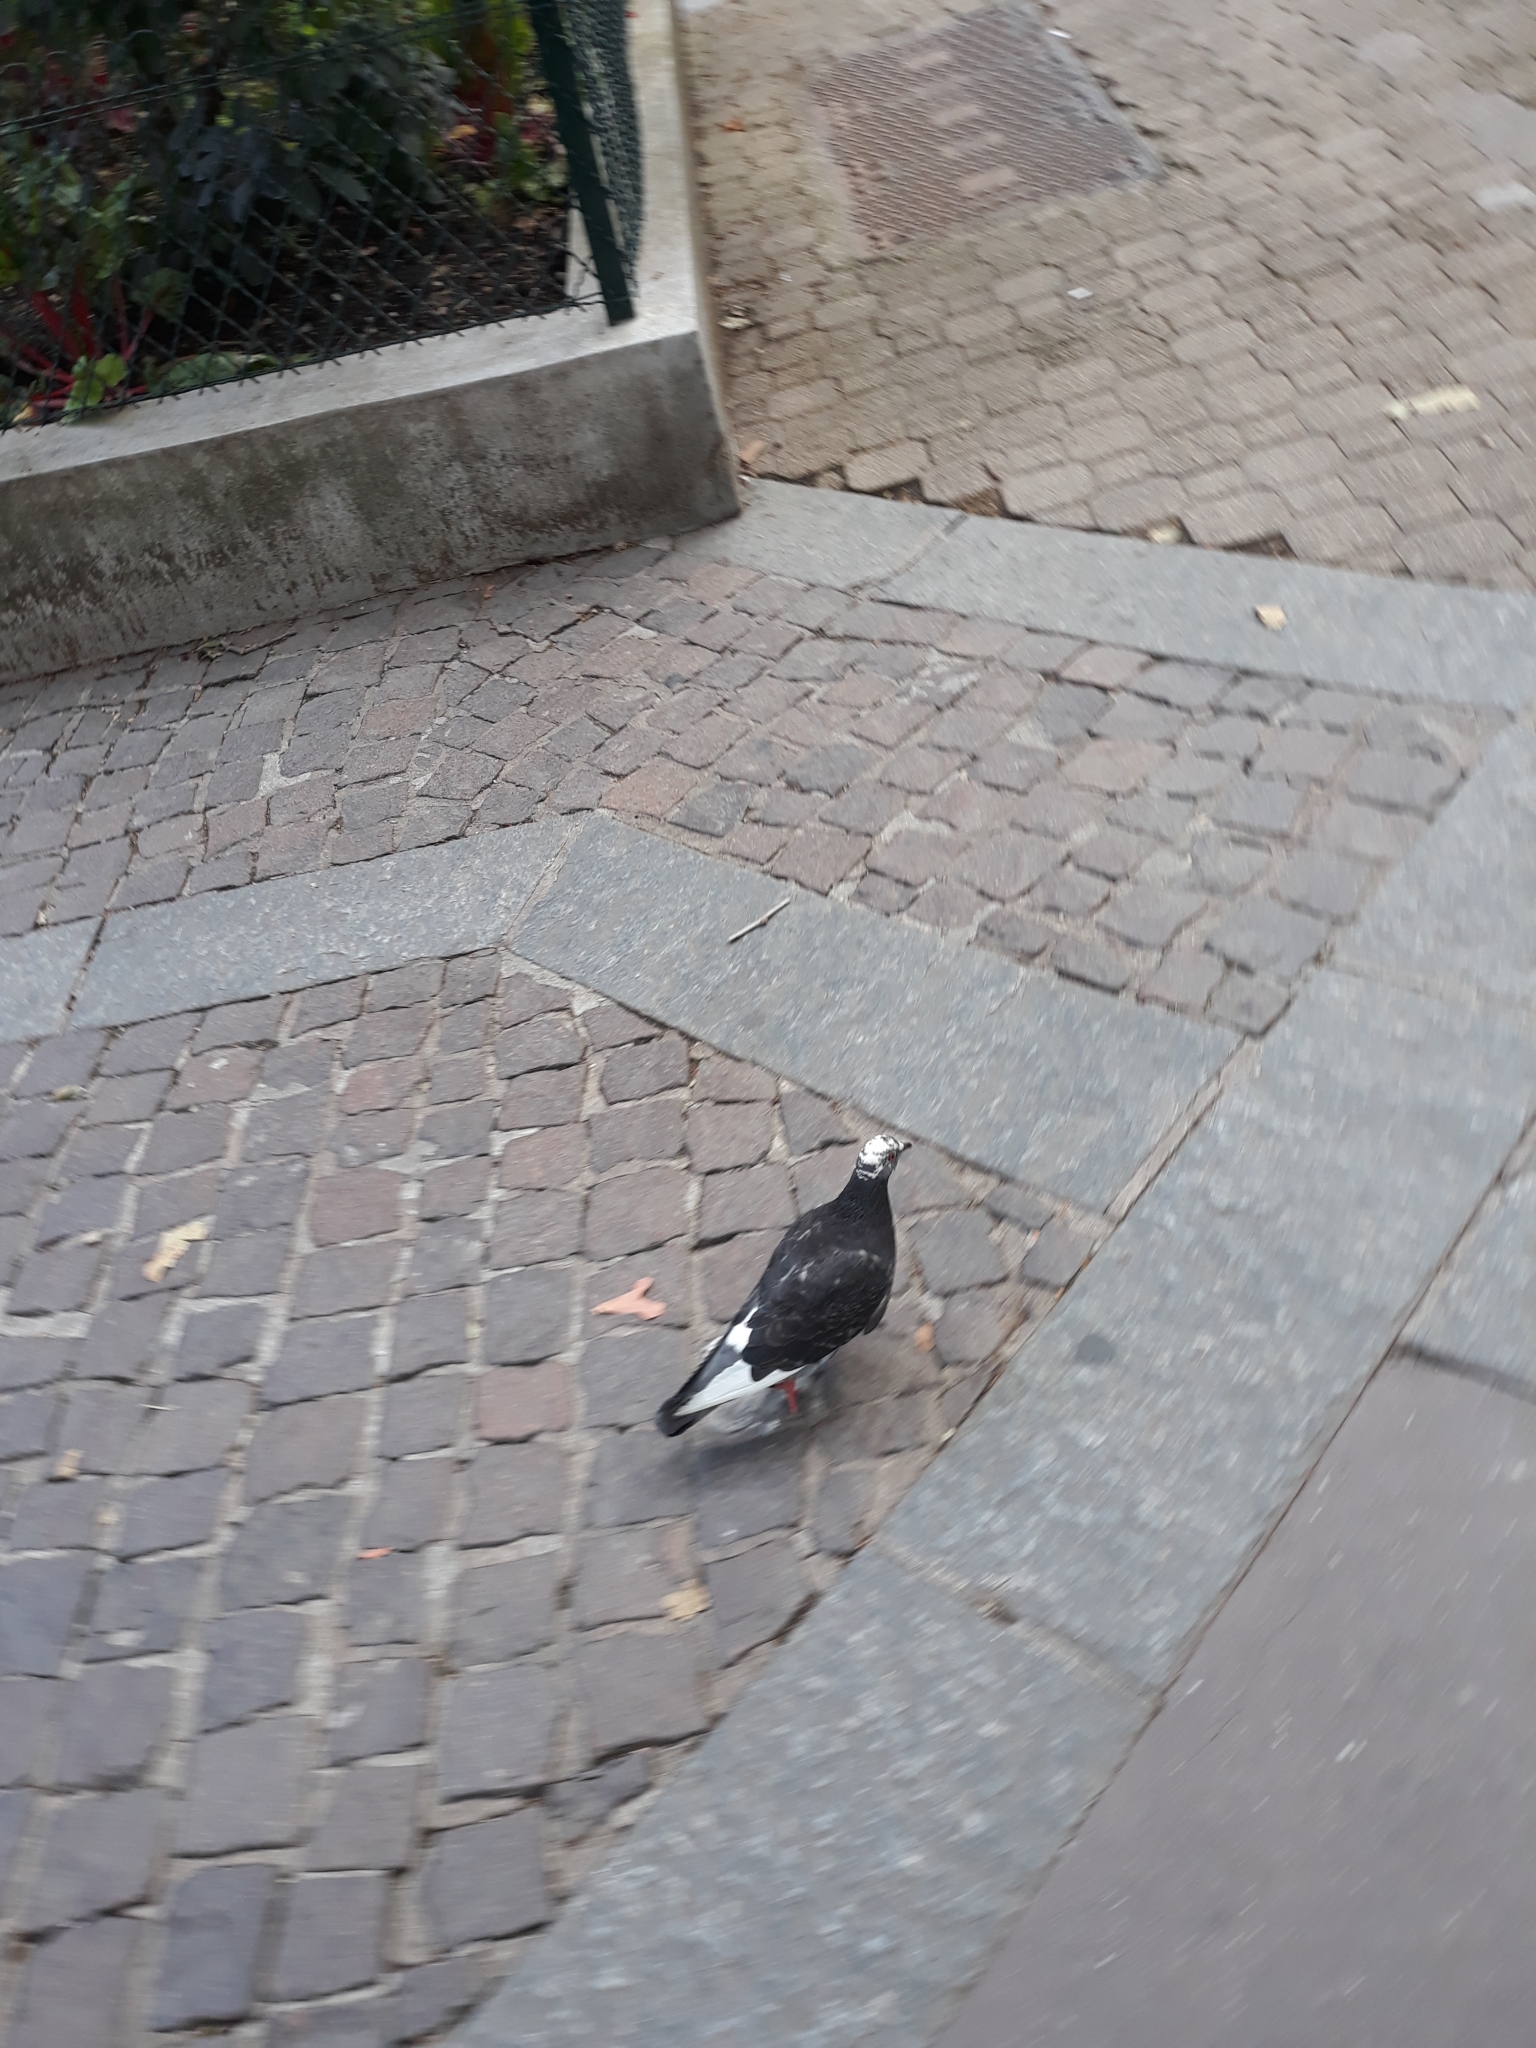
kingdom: Animalia
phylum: Chordata
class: Aves
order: Columbiformes
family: Columbidae
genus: Columba
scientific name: Columba livia
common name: Rock pigeon
